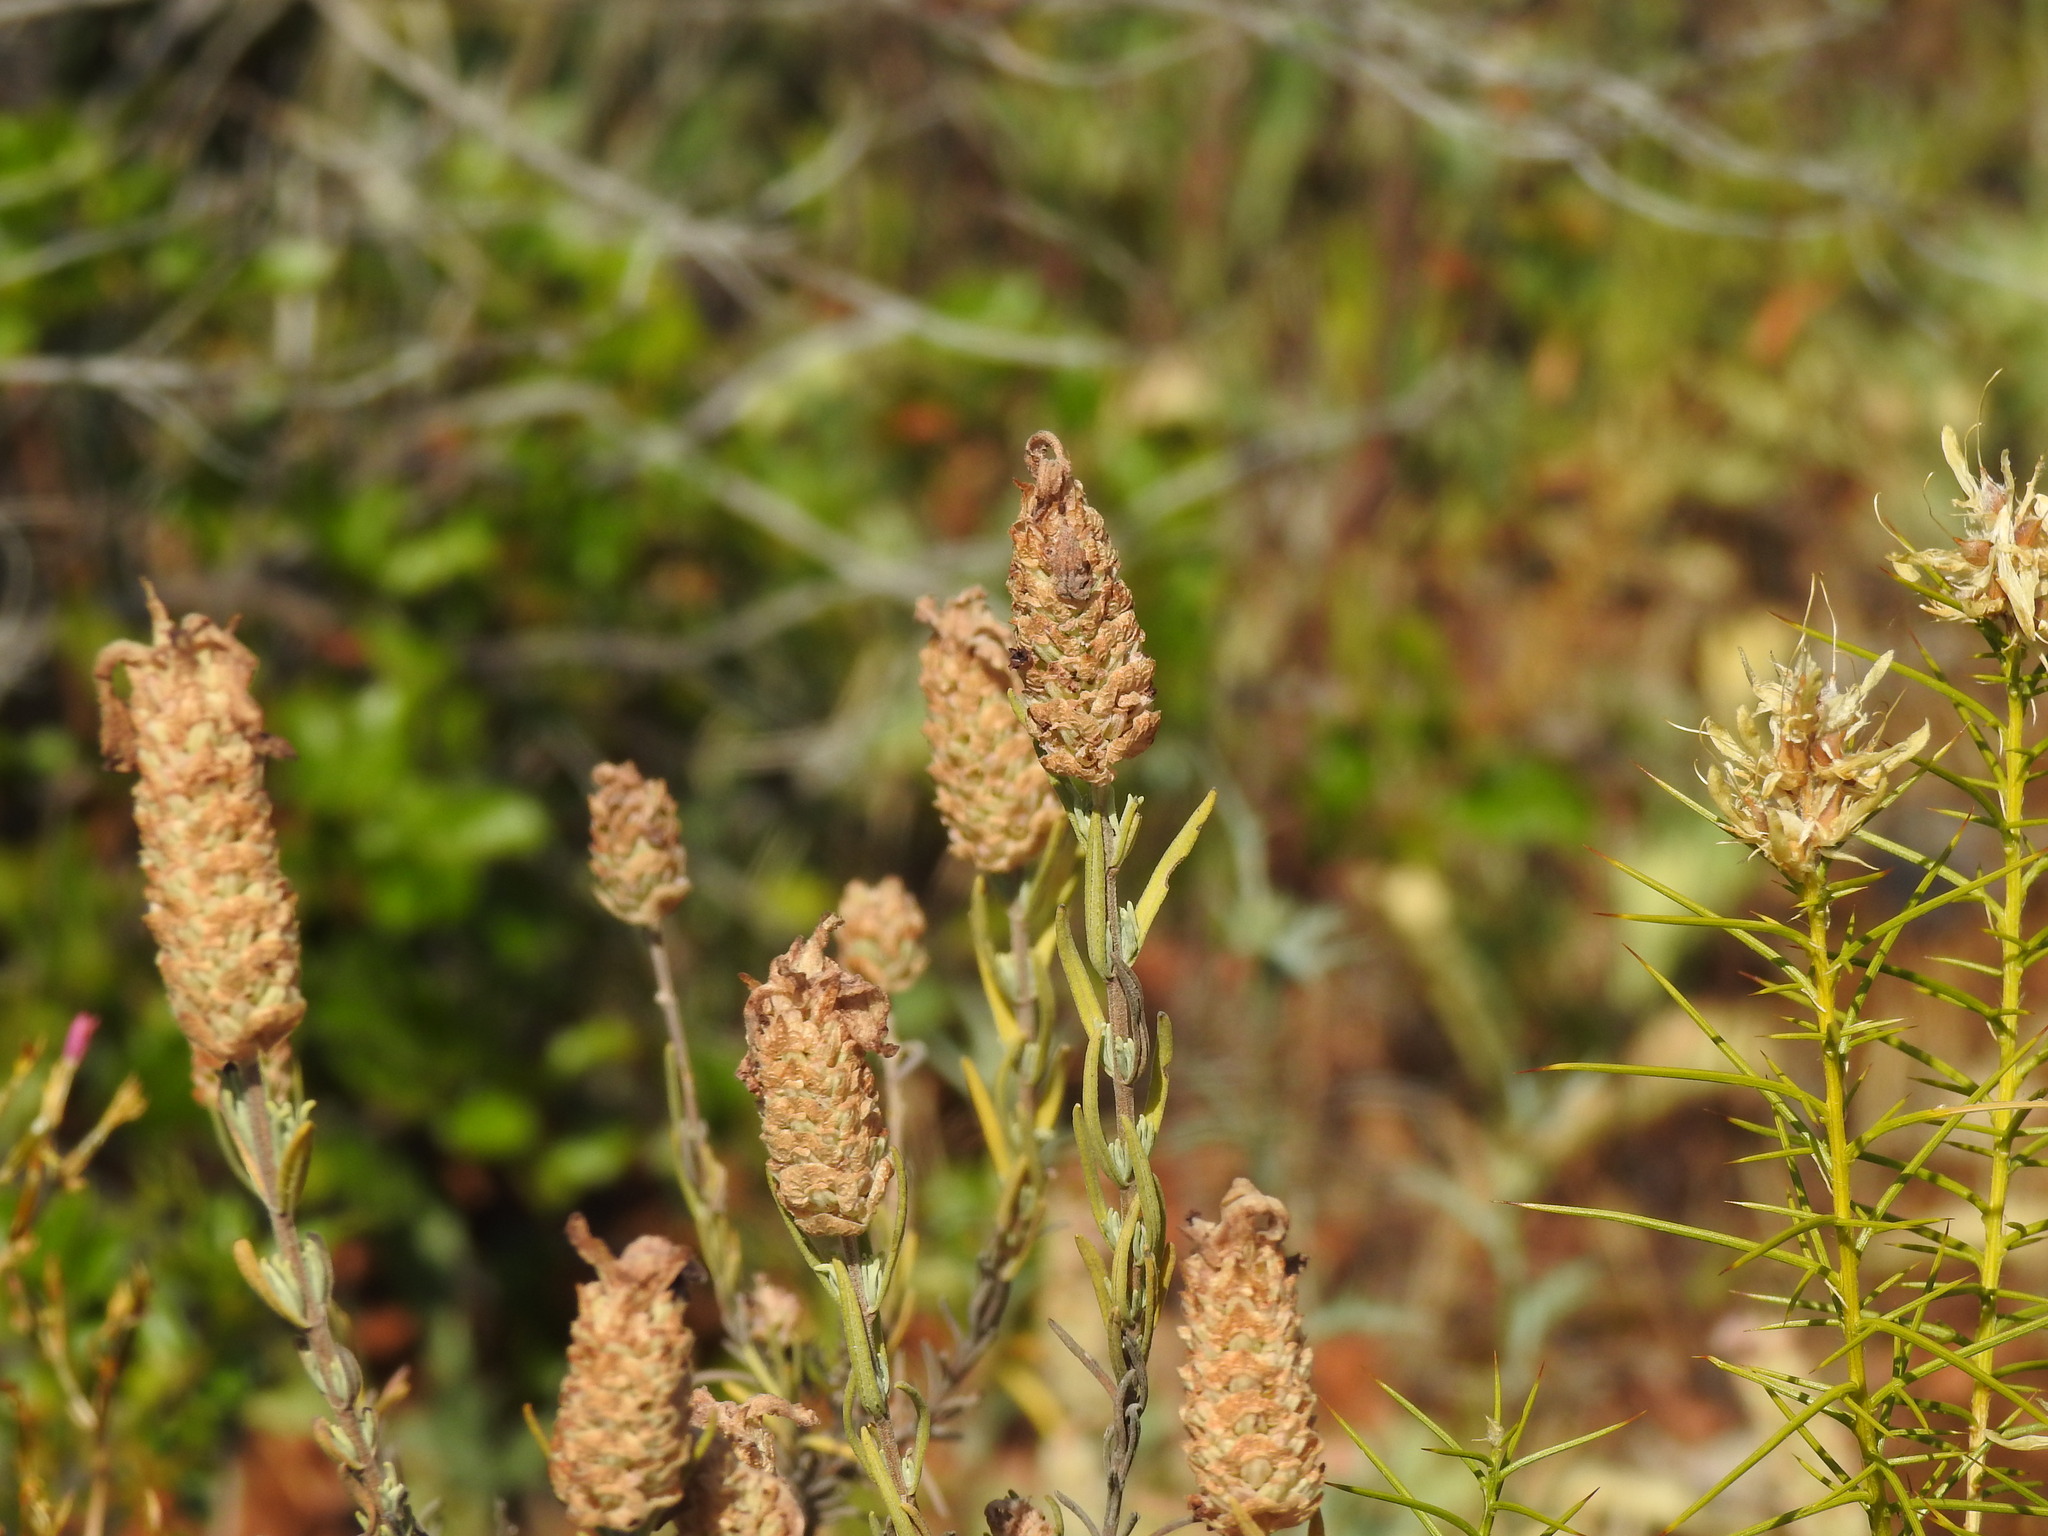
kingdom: Plantae
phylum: Tracheophyta
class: Magnoliopsida
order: Lamiales
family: Lamiaceae
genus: Lavandula
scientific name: Lavandula stoechas
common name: French lavender
